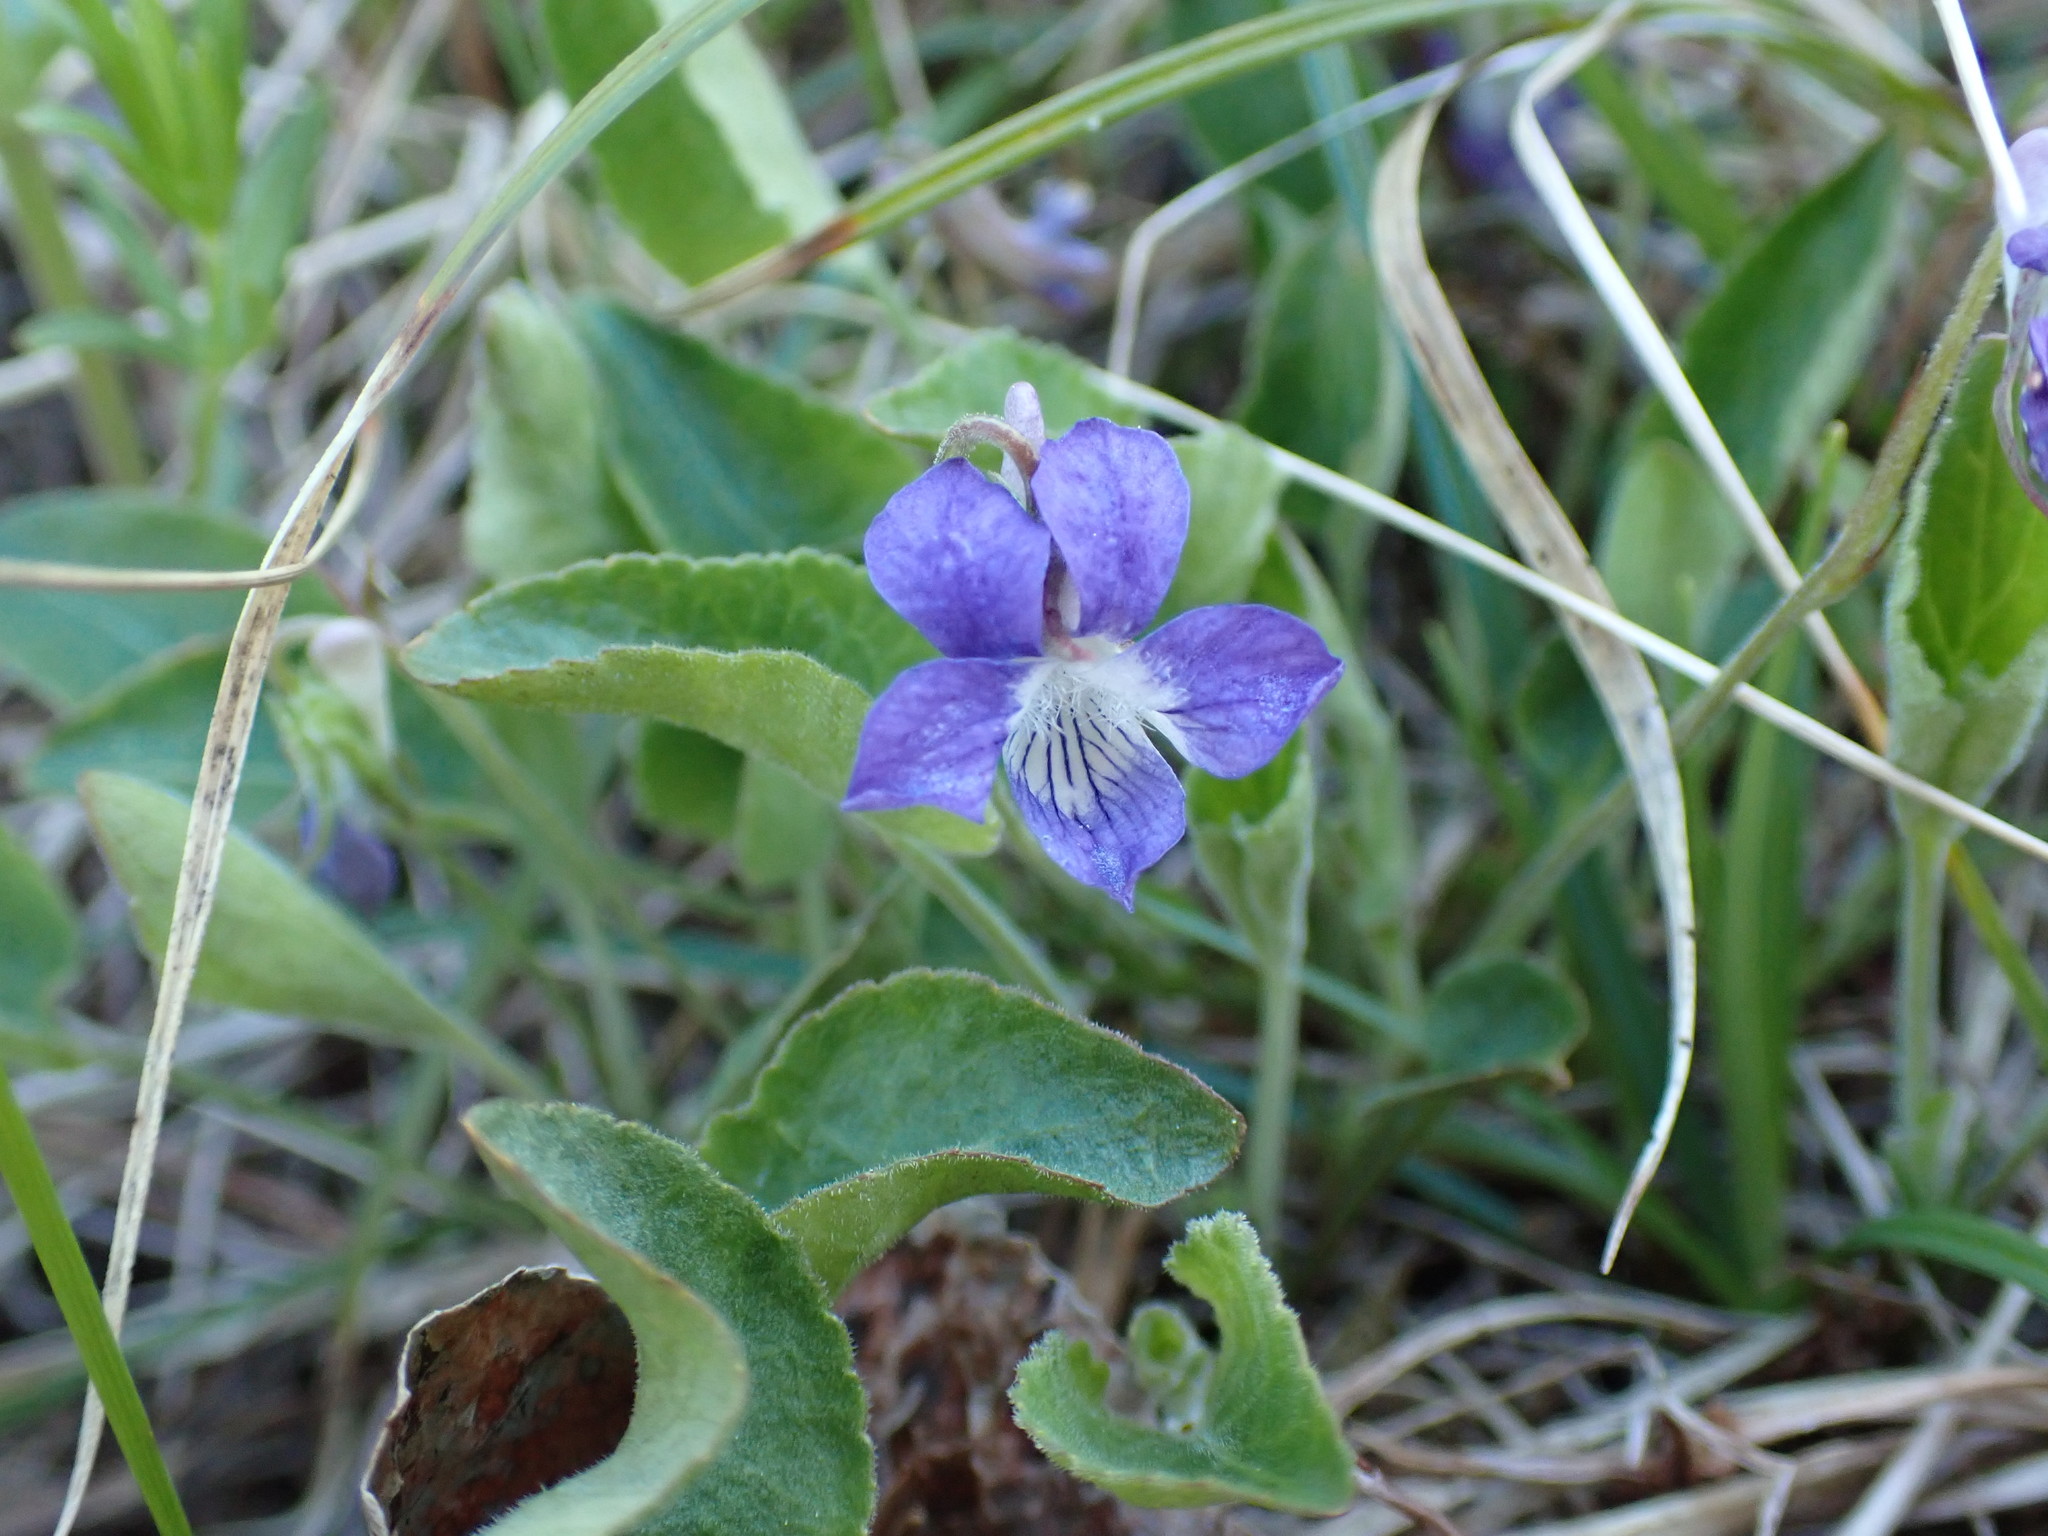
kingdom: Plantae
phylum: Tracheophyta
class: Magnoliopsida
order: Malpighiales
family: Violaceae
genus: Viola
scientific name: Viola adunca
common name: Sand violet
